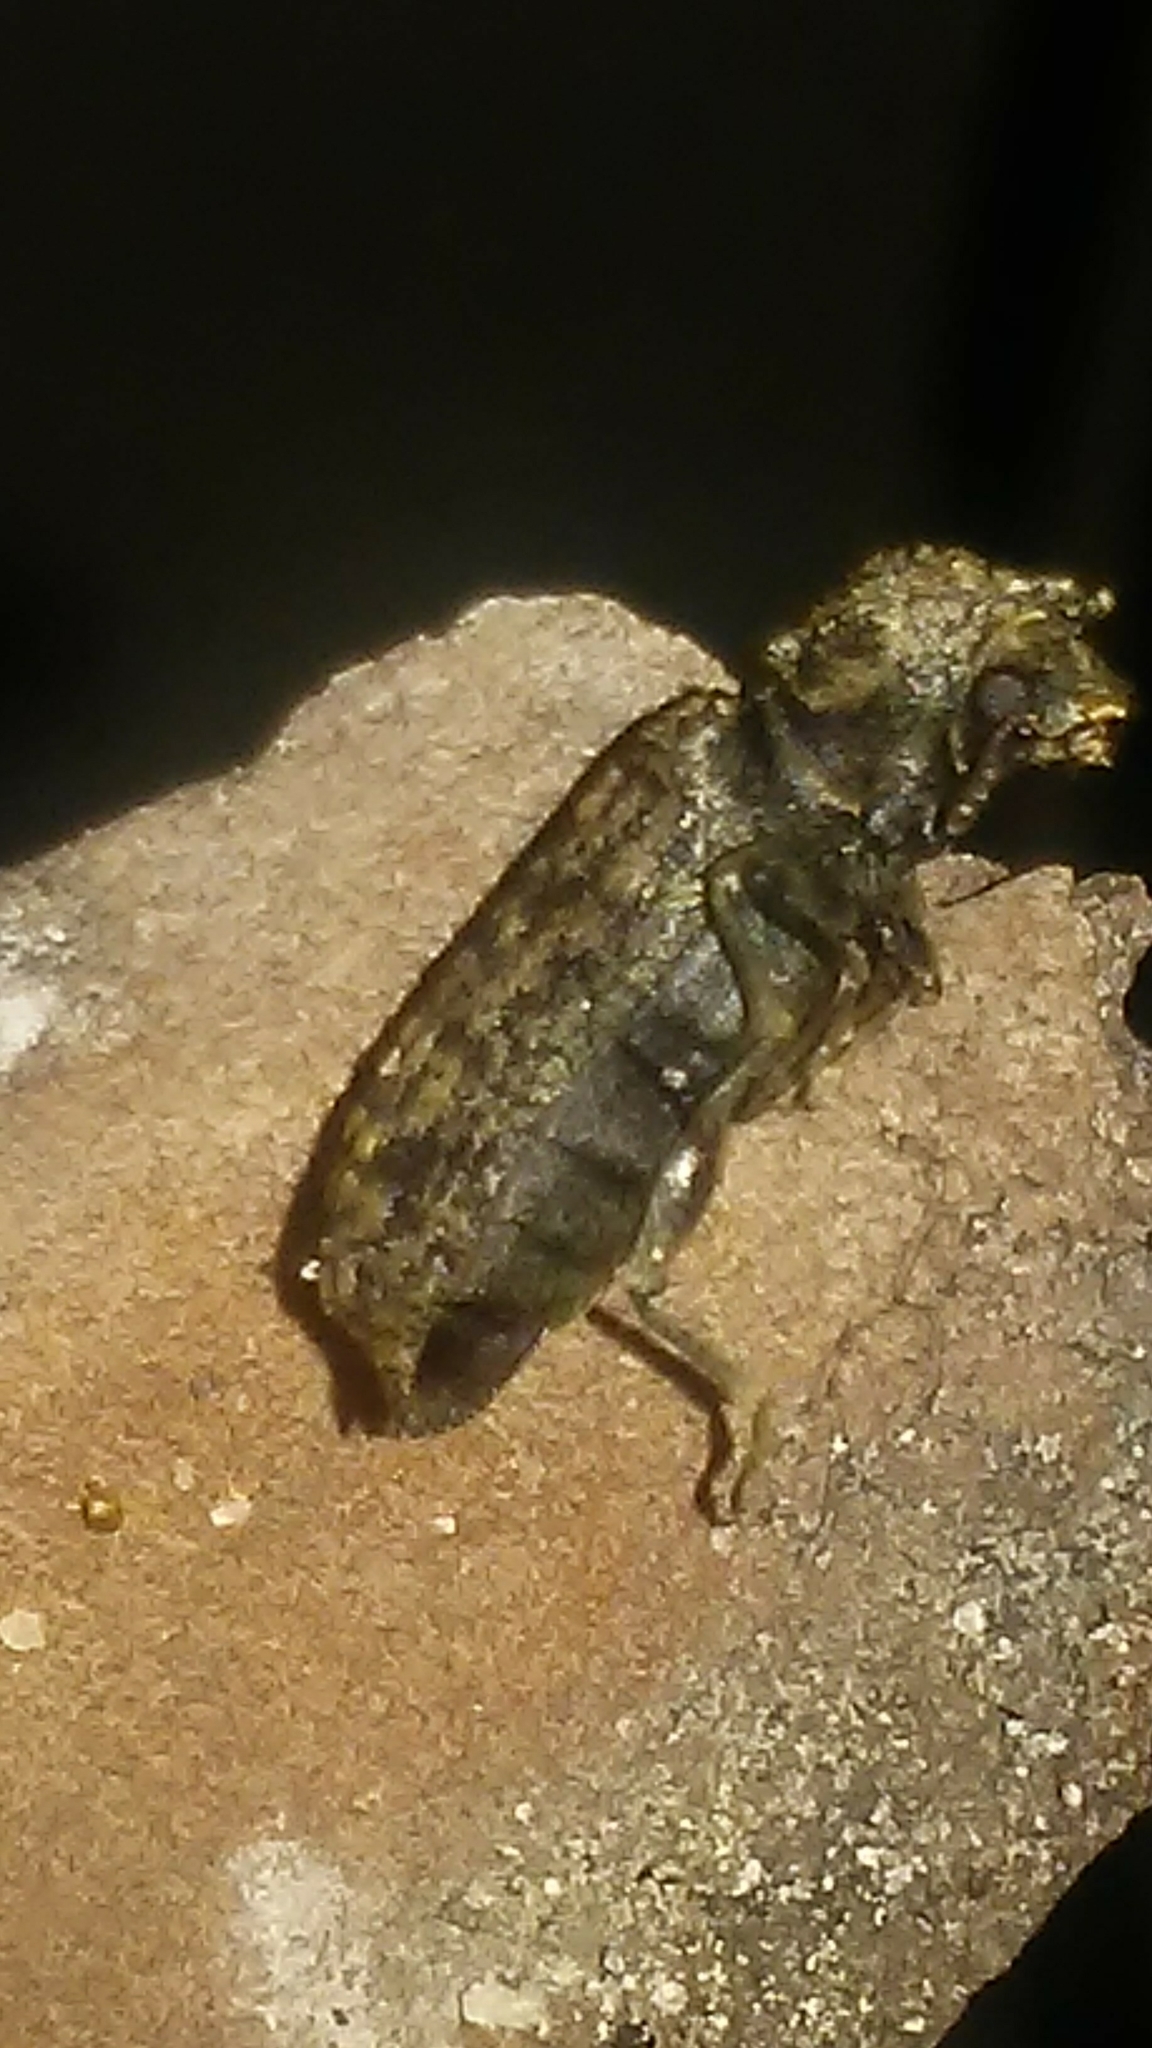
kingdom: Animalia
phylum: Arthropoda
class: Insecta
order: Coleoptera
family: Bostrichidae
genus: Lichenophanes
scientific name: Lichenophanes bicornis
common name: Two-horned powder-post beetle
